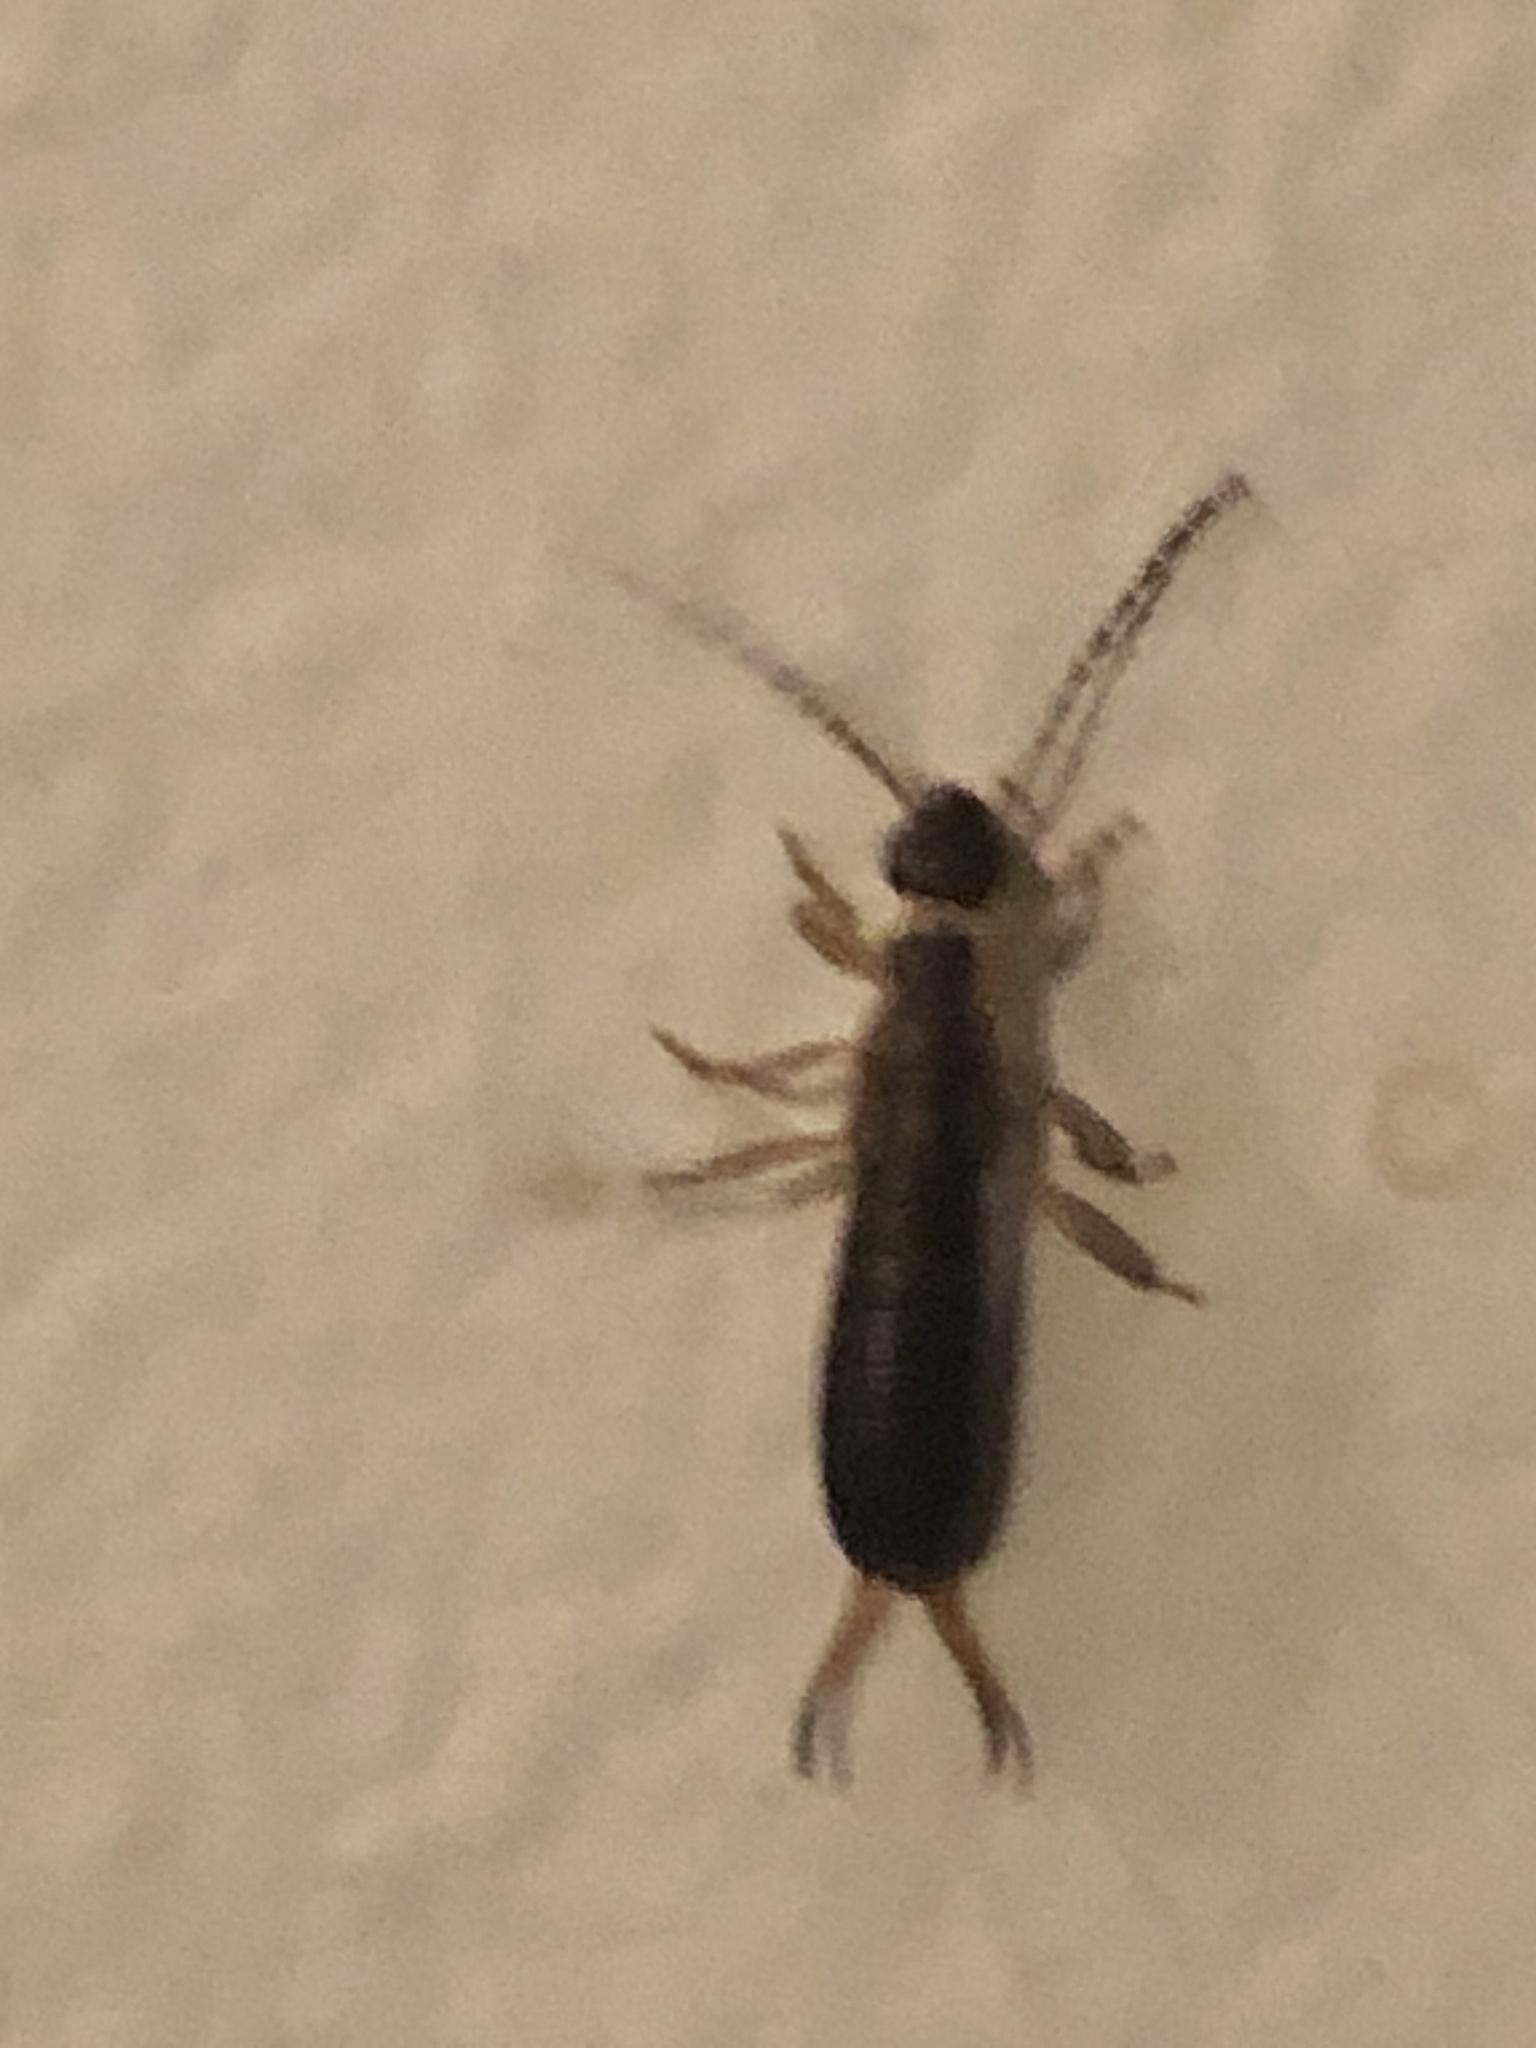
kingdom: Animalia
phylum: Arthropoda
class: Insecta
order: Dermaptera
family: Forficulidae
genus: Forficula
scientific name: Forficula
